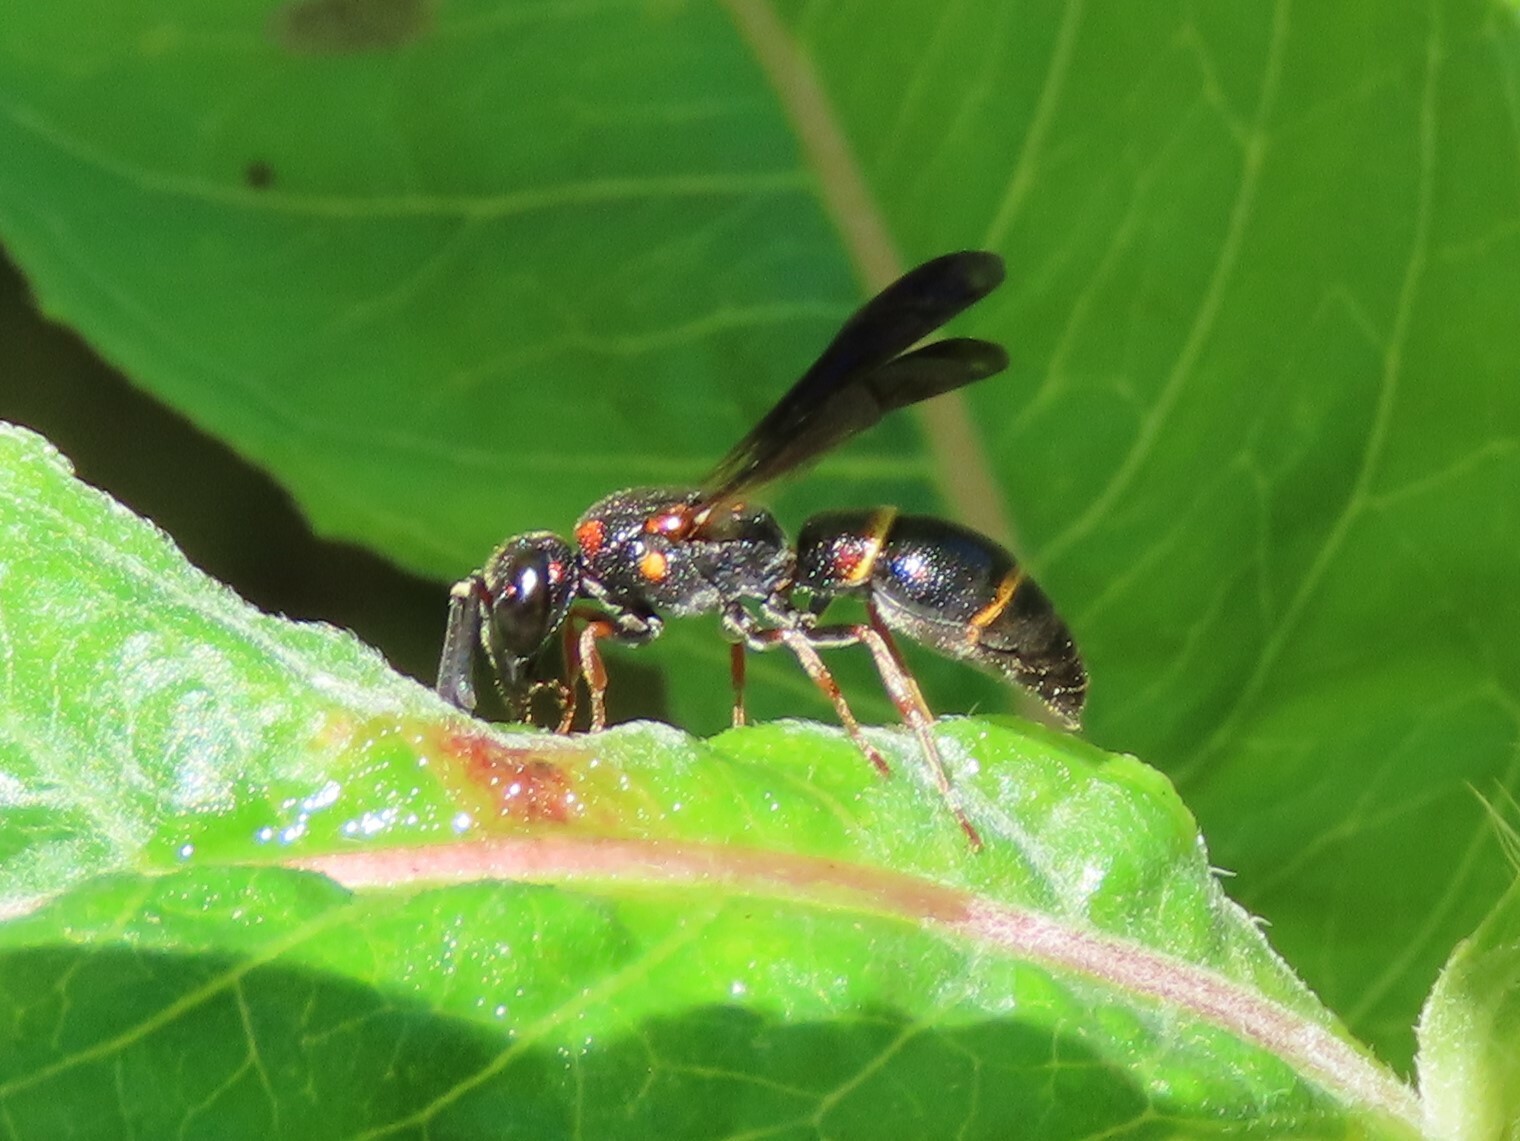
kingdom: Animalia
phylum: Arthropoda
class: Insecta
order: Hymenoptera
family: Eumenidae
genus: Parancistrocerus
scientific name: Parancistrocerus
